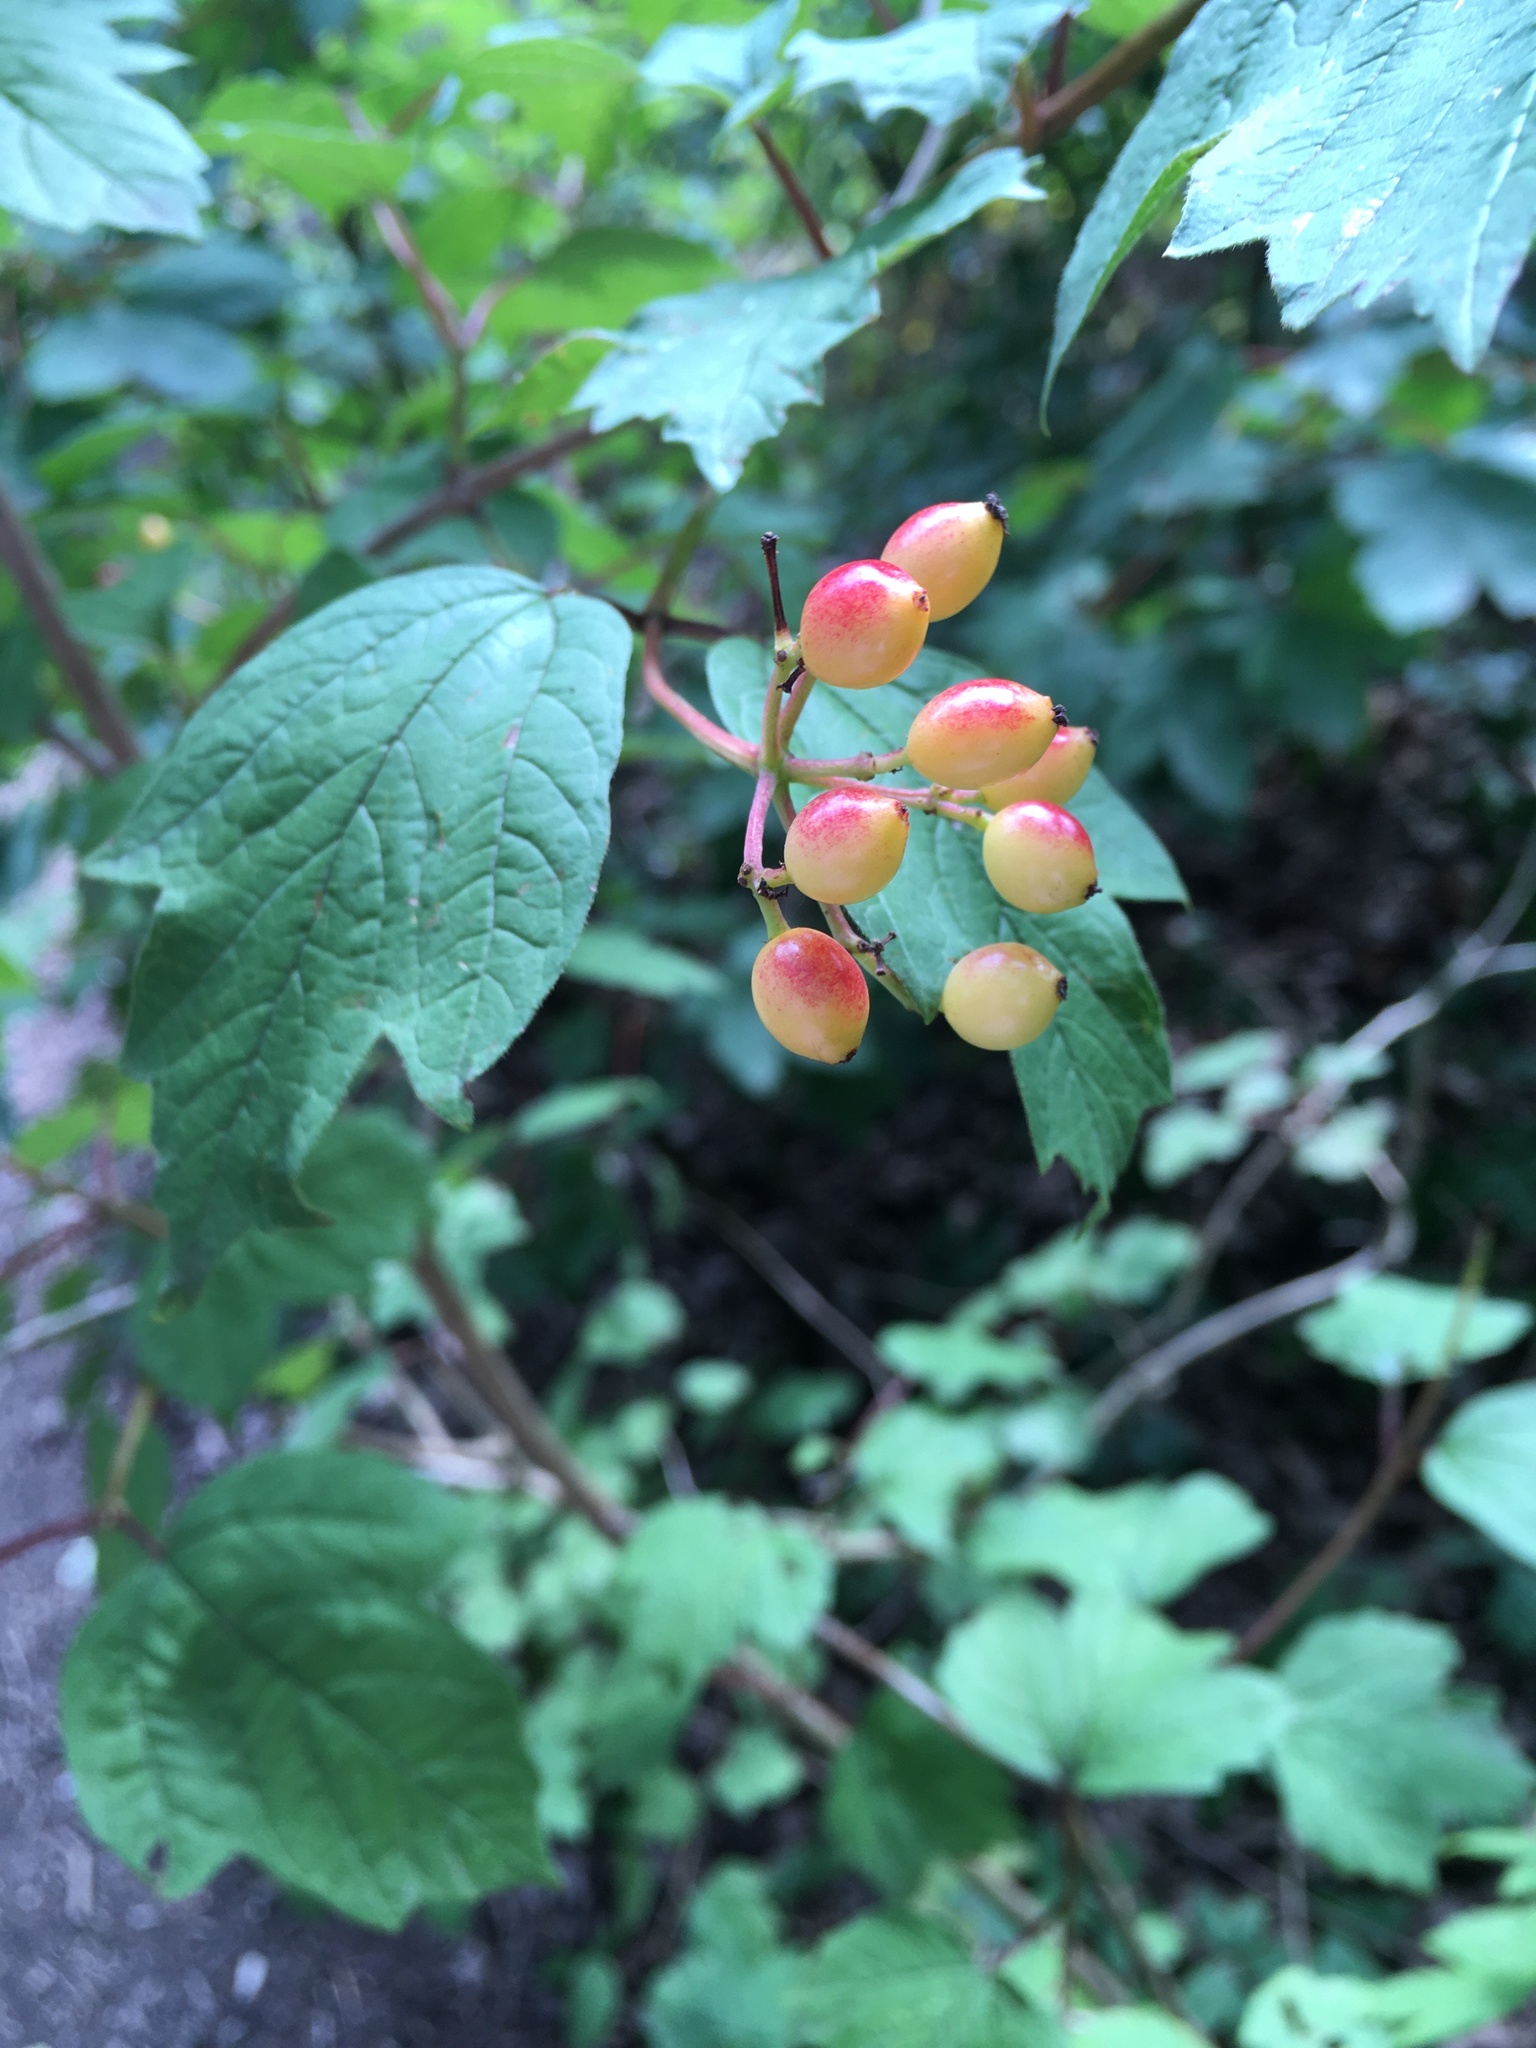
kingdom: Plantae
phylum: Tracheophyta
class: Magnoliopsida
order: Dipsacales
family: Viburnaceae
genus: Viburnum
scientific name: Viburnum opulus
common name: Guelder-rose
